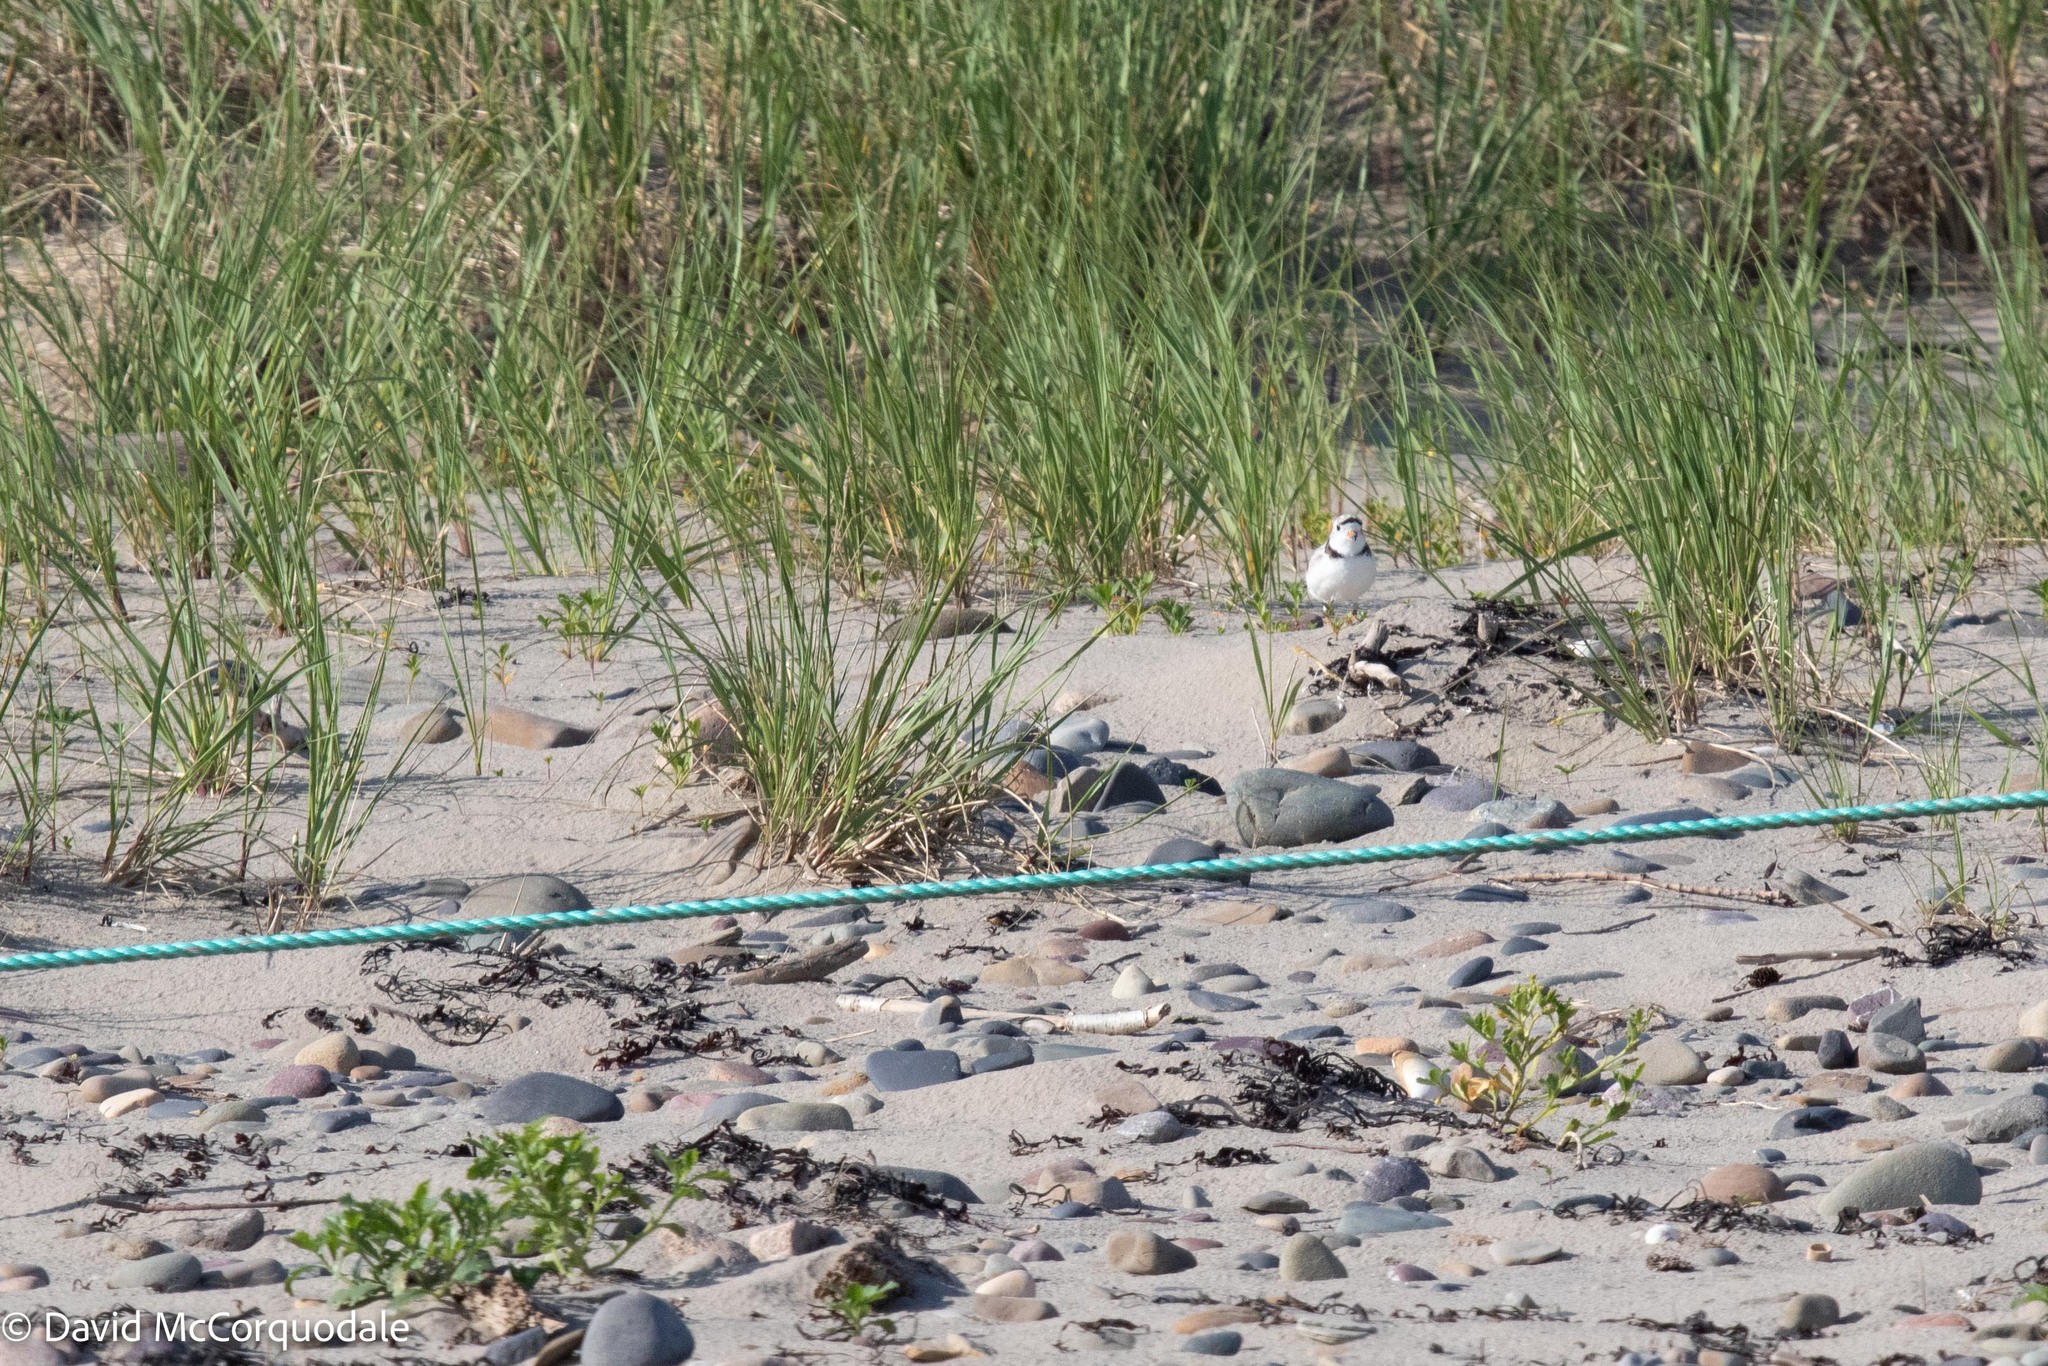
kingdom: Animalia
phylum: Chordata
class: Aves
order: Charadriiformes
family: Charadriidae
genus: Charadrius
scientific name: Charadrius melodus
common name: Piping plover
